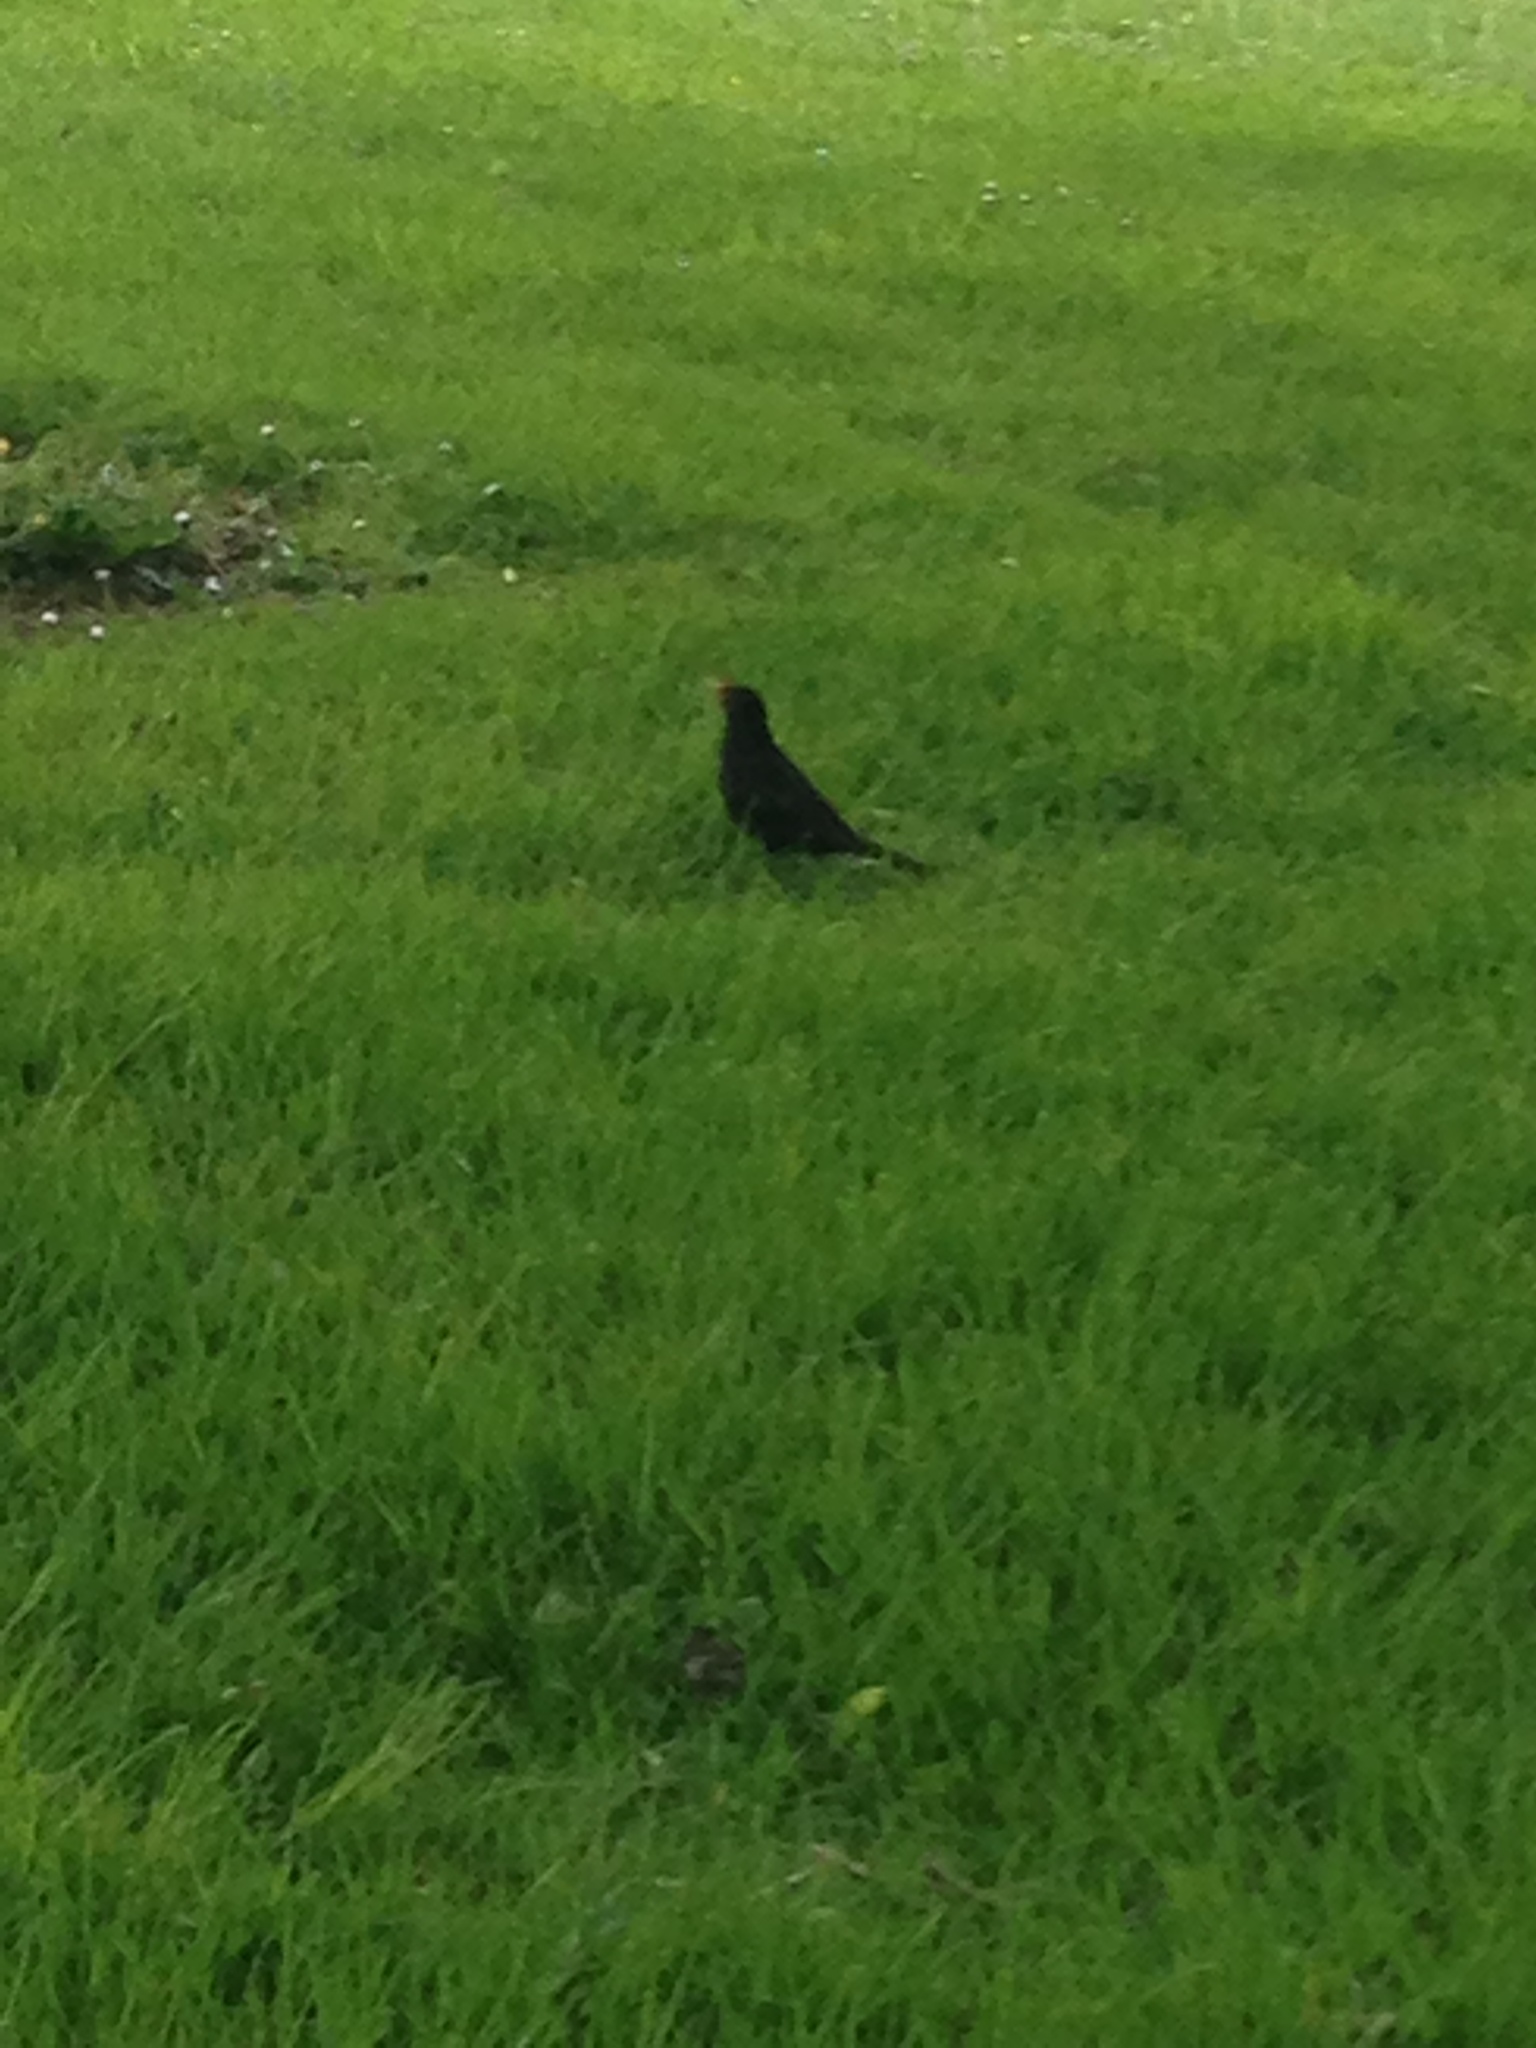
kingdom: Animalia
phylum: Chordata
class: Aves
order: Passeriformes
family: Turdidae
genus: Turdus
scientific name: Turdus merula
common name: Common blackbird
